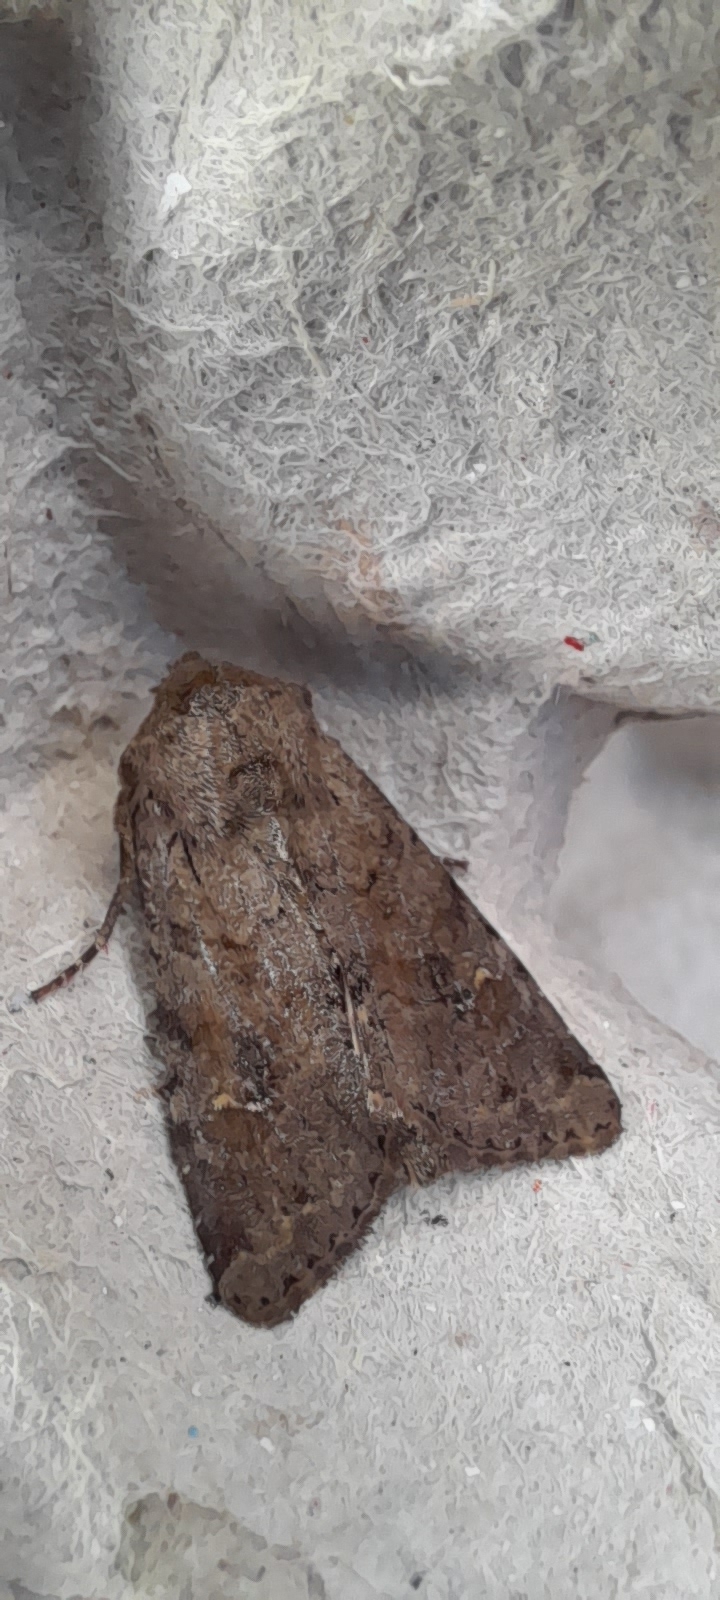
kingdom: Animalia
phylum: Arthropoda
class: Insecta
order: Lepidoptera
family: Noctuidae
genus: Apamea
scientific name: Apamea sordens
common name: Rustic shoulder-knot
